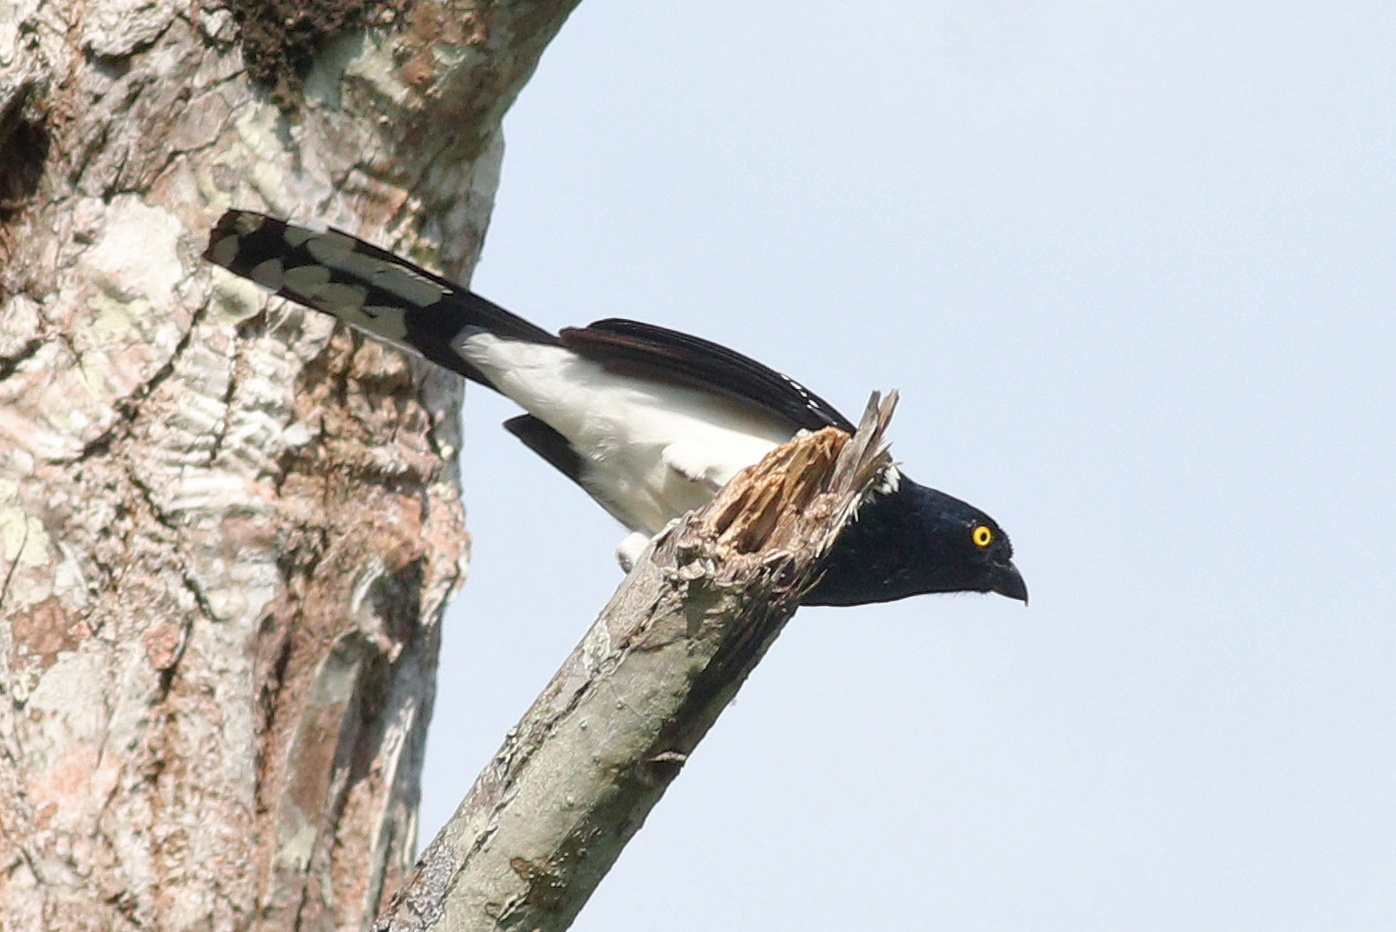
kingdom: Animalia
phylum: Chordata
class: Aves
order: Passeriformes
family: Thraupidae
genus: Cissopis
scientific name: Cissopis leverianus
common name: Magpie tanager
